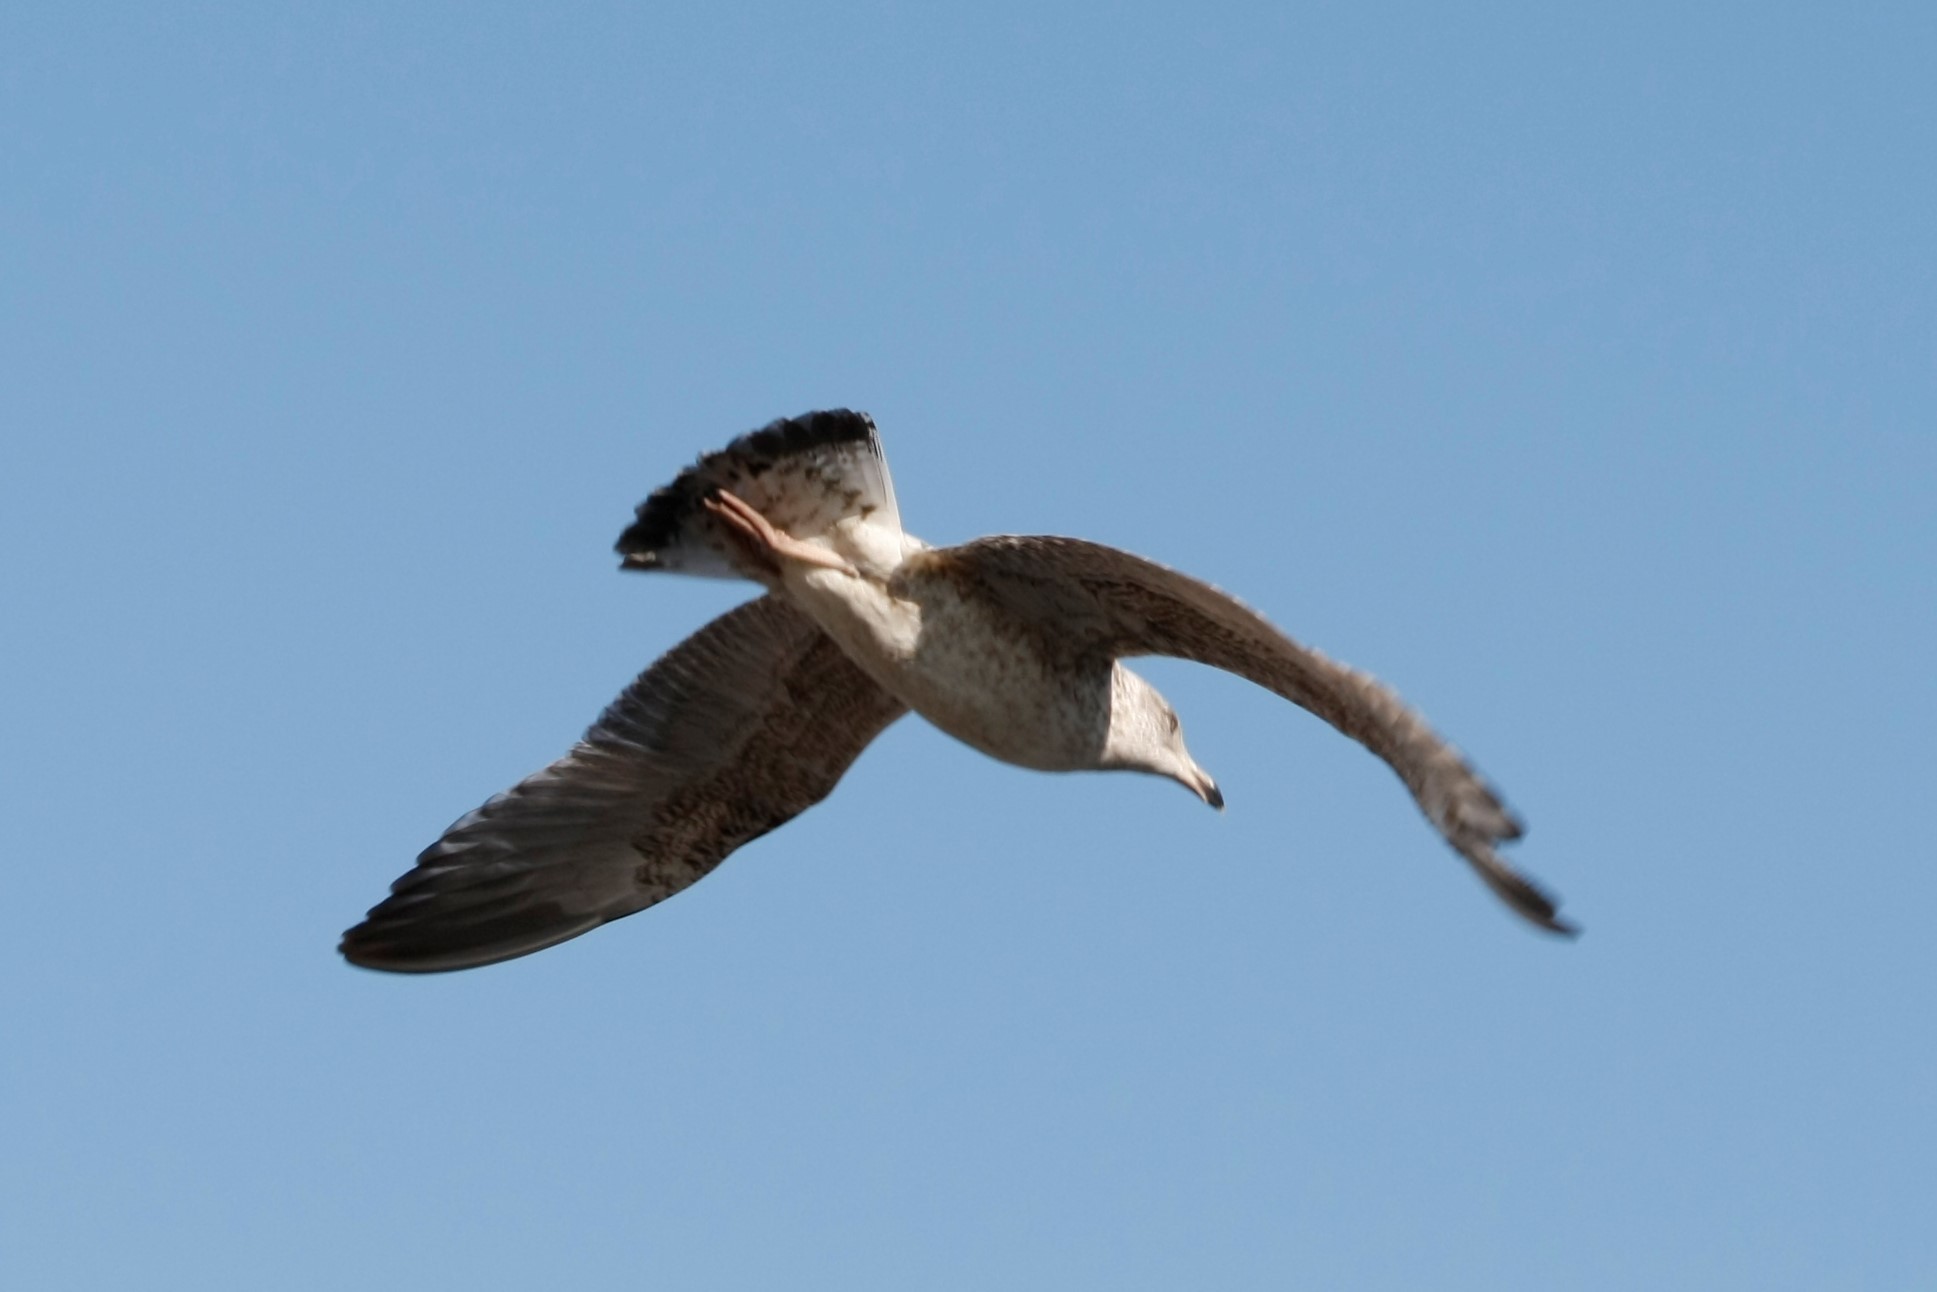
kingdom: Animalia
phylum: Chordata
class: Aves
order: Charadriiformes
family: Laridae
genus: Larus
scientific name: Larus argentatus
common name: Herring gull
